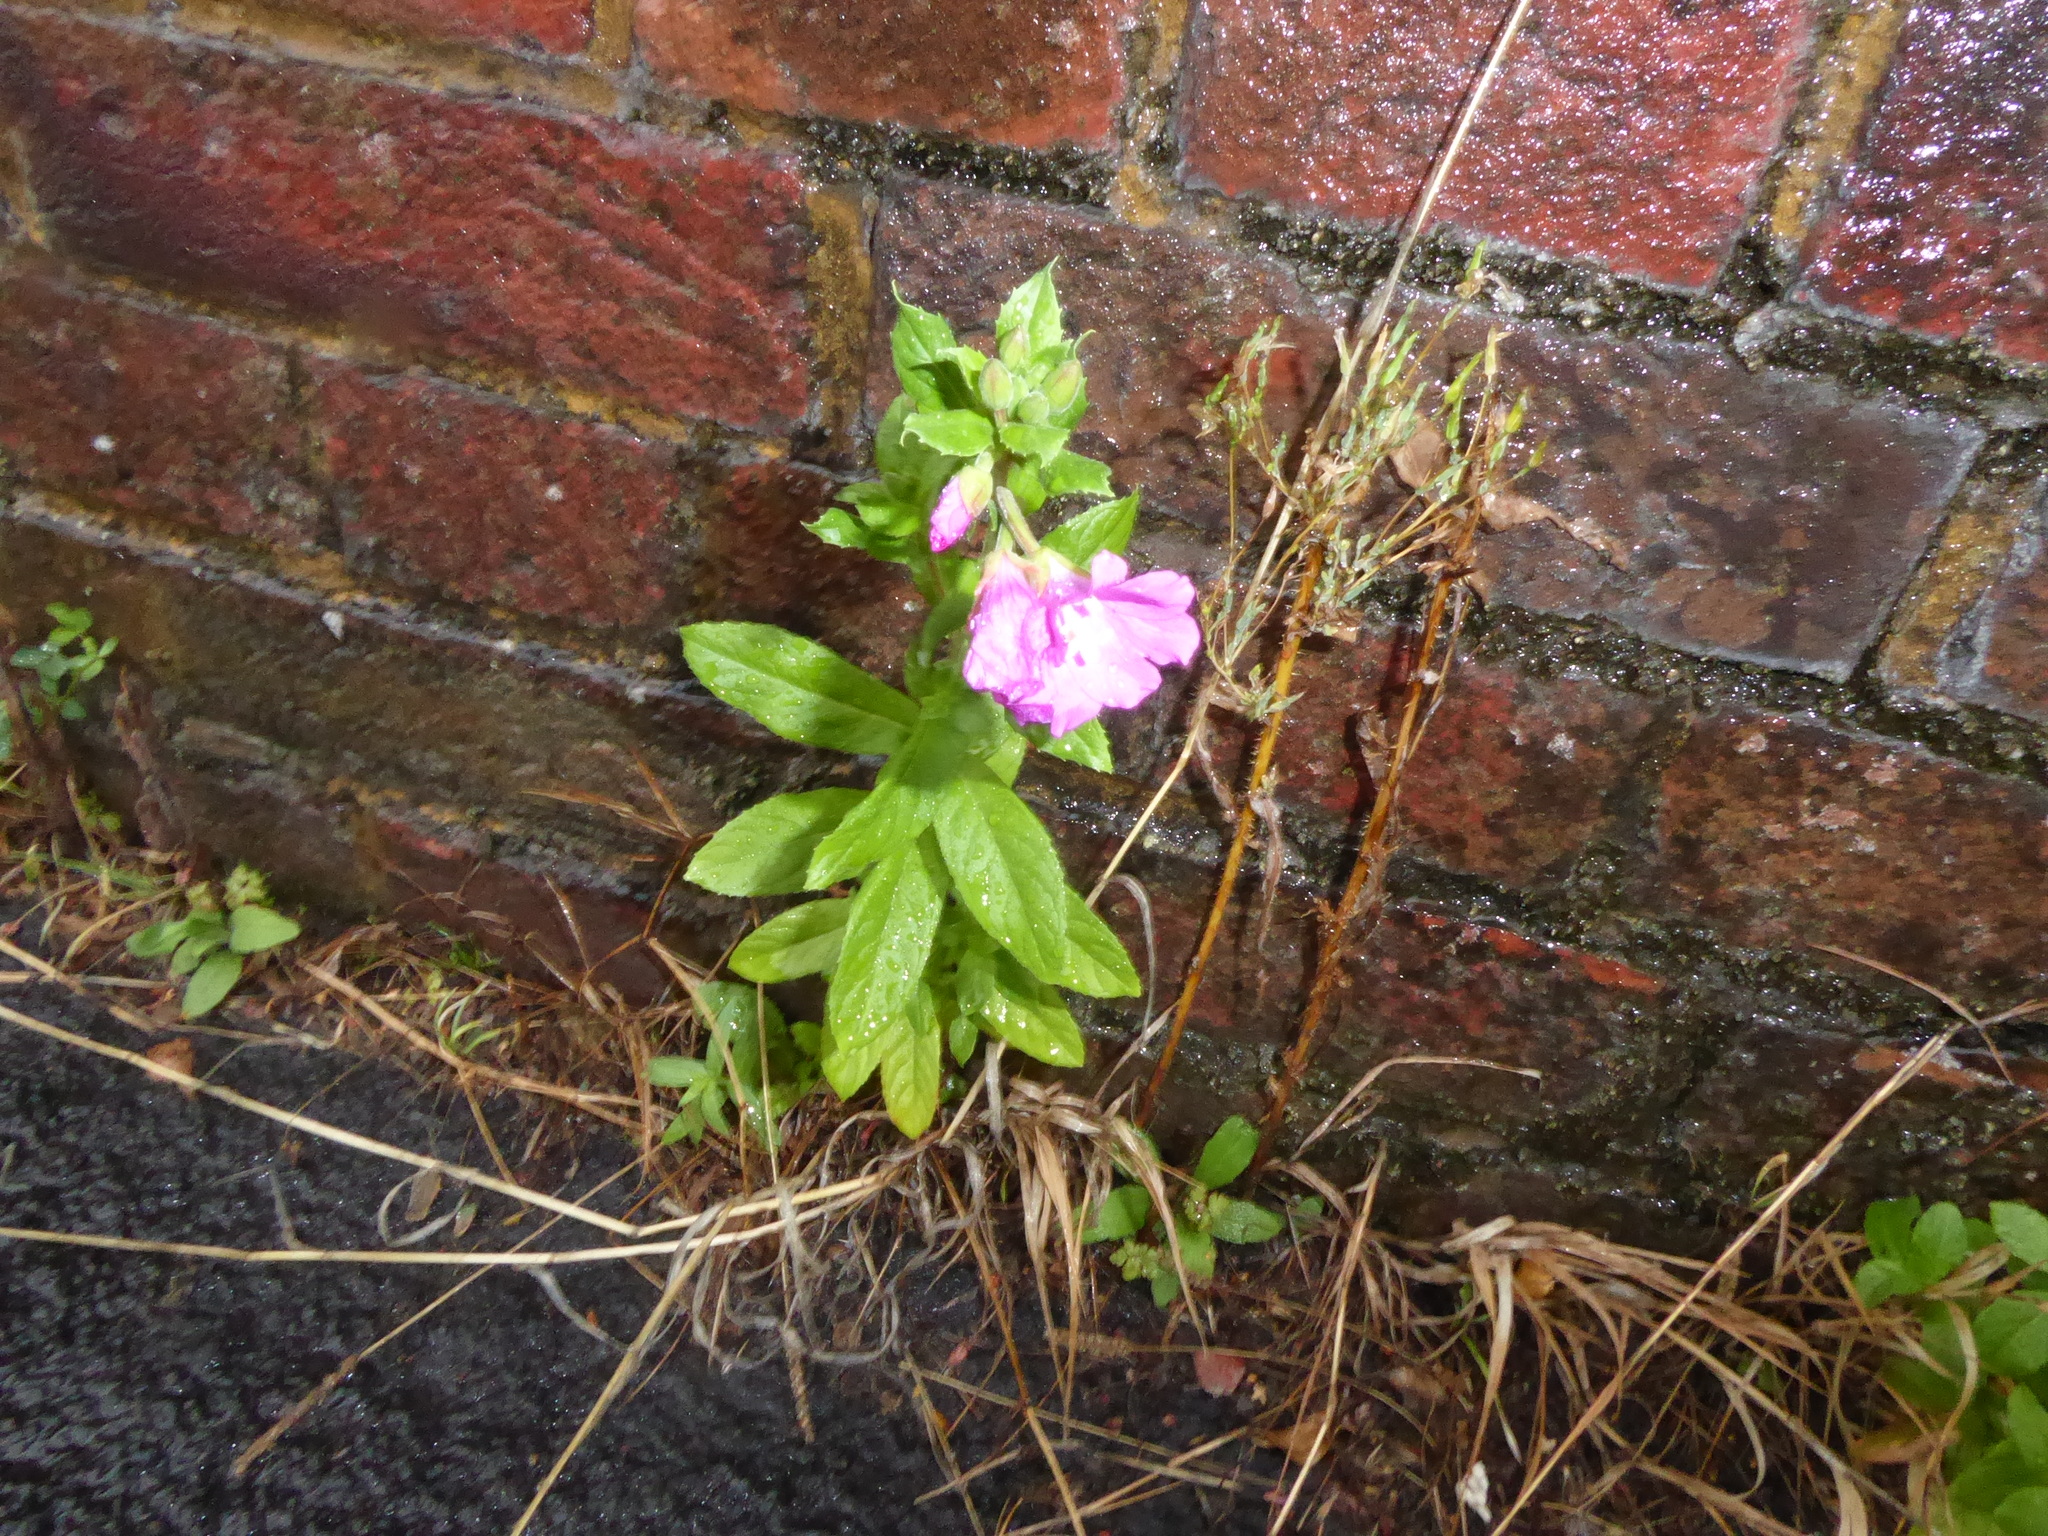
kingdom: Plantae
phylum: Tracheophyta
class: Magnoliopsida
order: Myrtales
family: Onagraceae
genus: Epilobium
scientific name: Epilobium hirsutum
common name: Great willowherb
